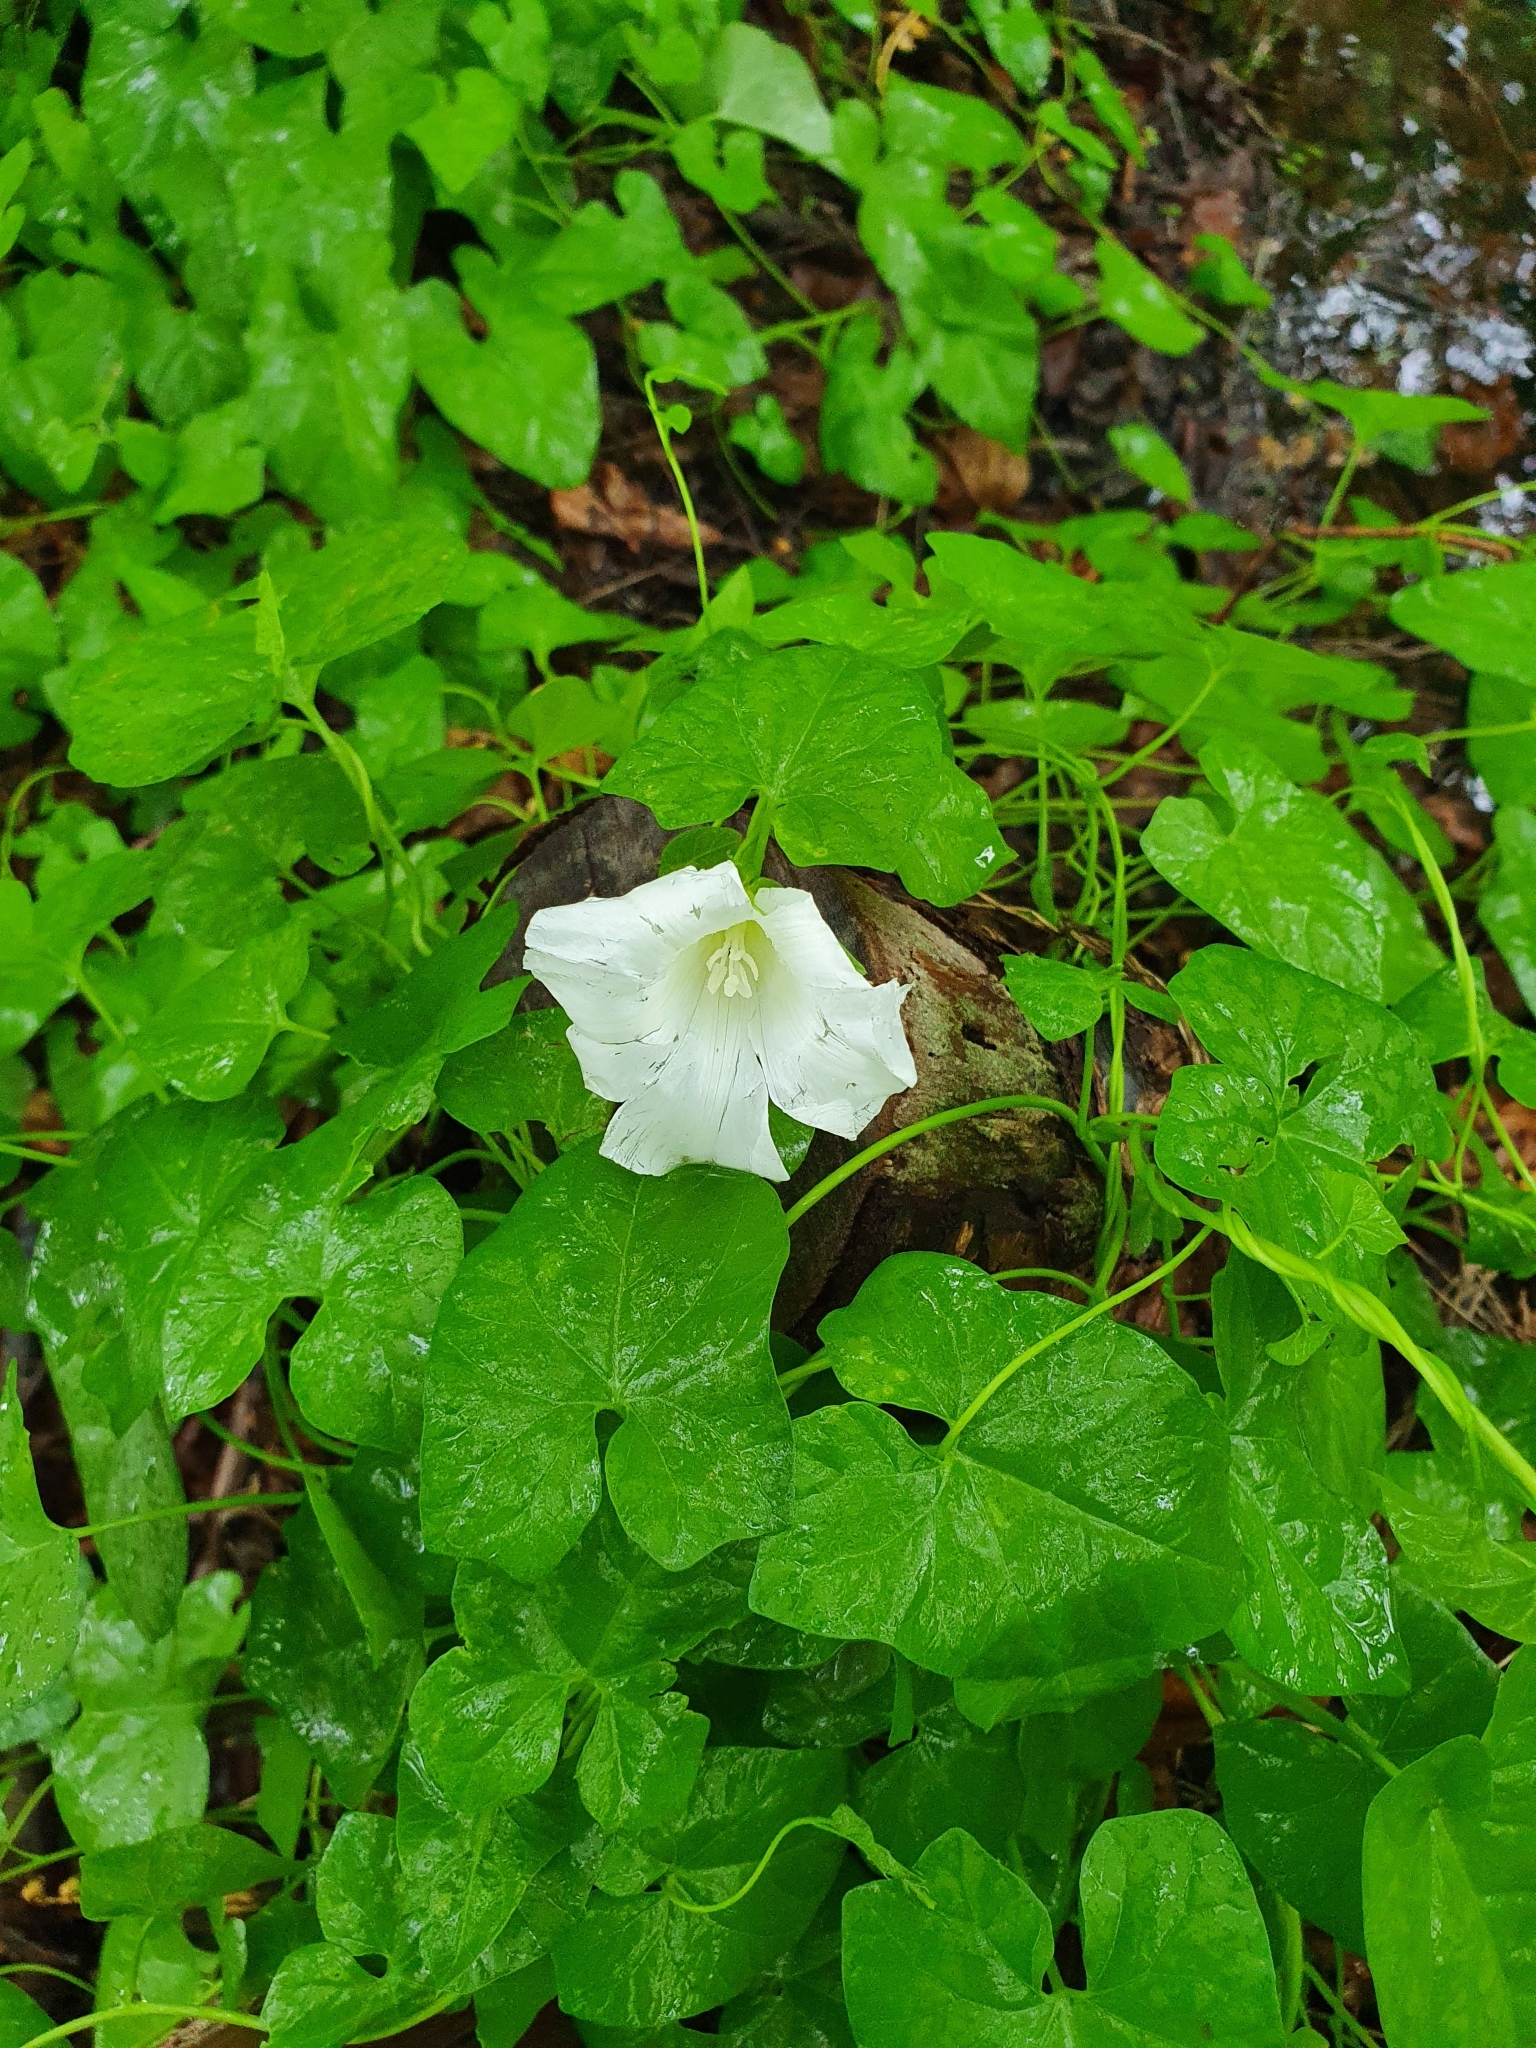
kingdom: Plantae
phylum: Tracheophyta
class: Magnoliopsida
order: Solanales
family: Convolvulaceae
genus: Calystegia
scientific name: Calystegia sepium
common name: Hedge bindweed
